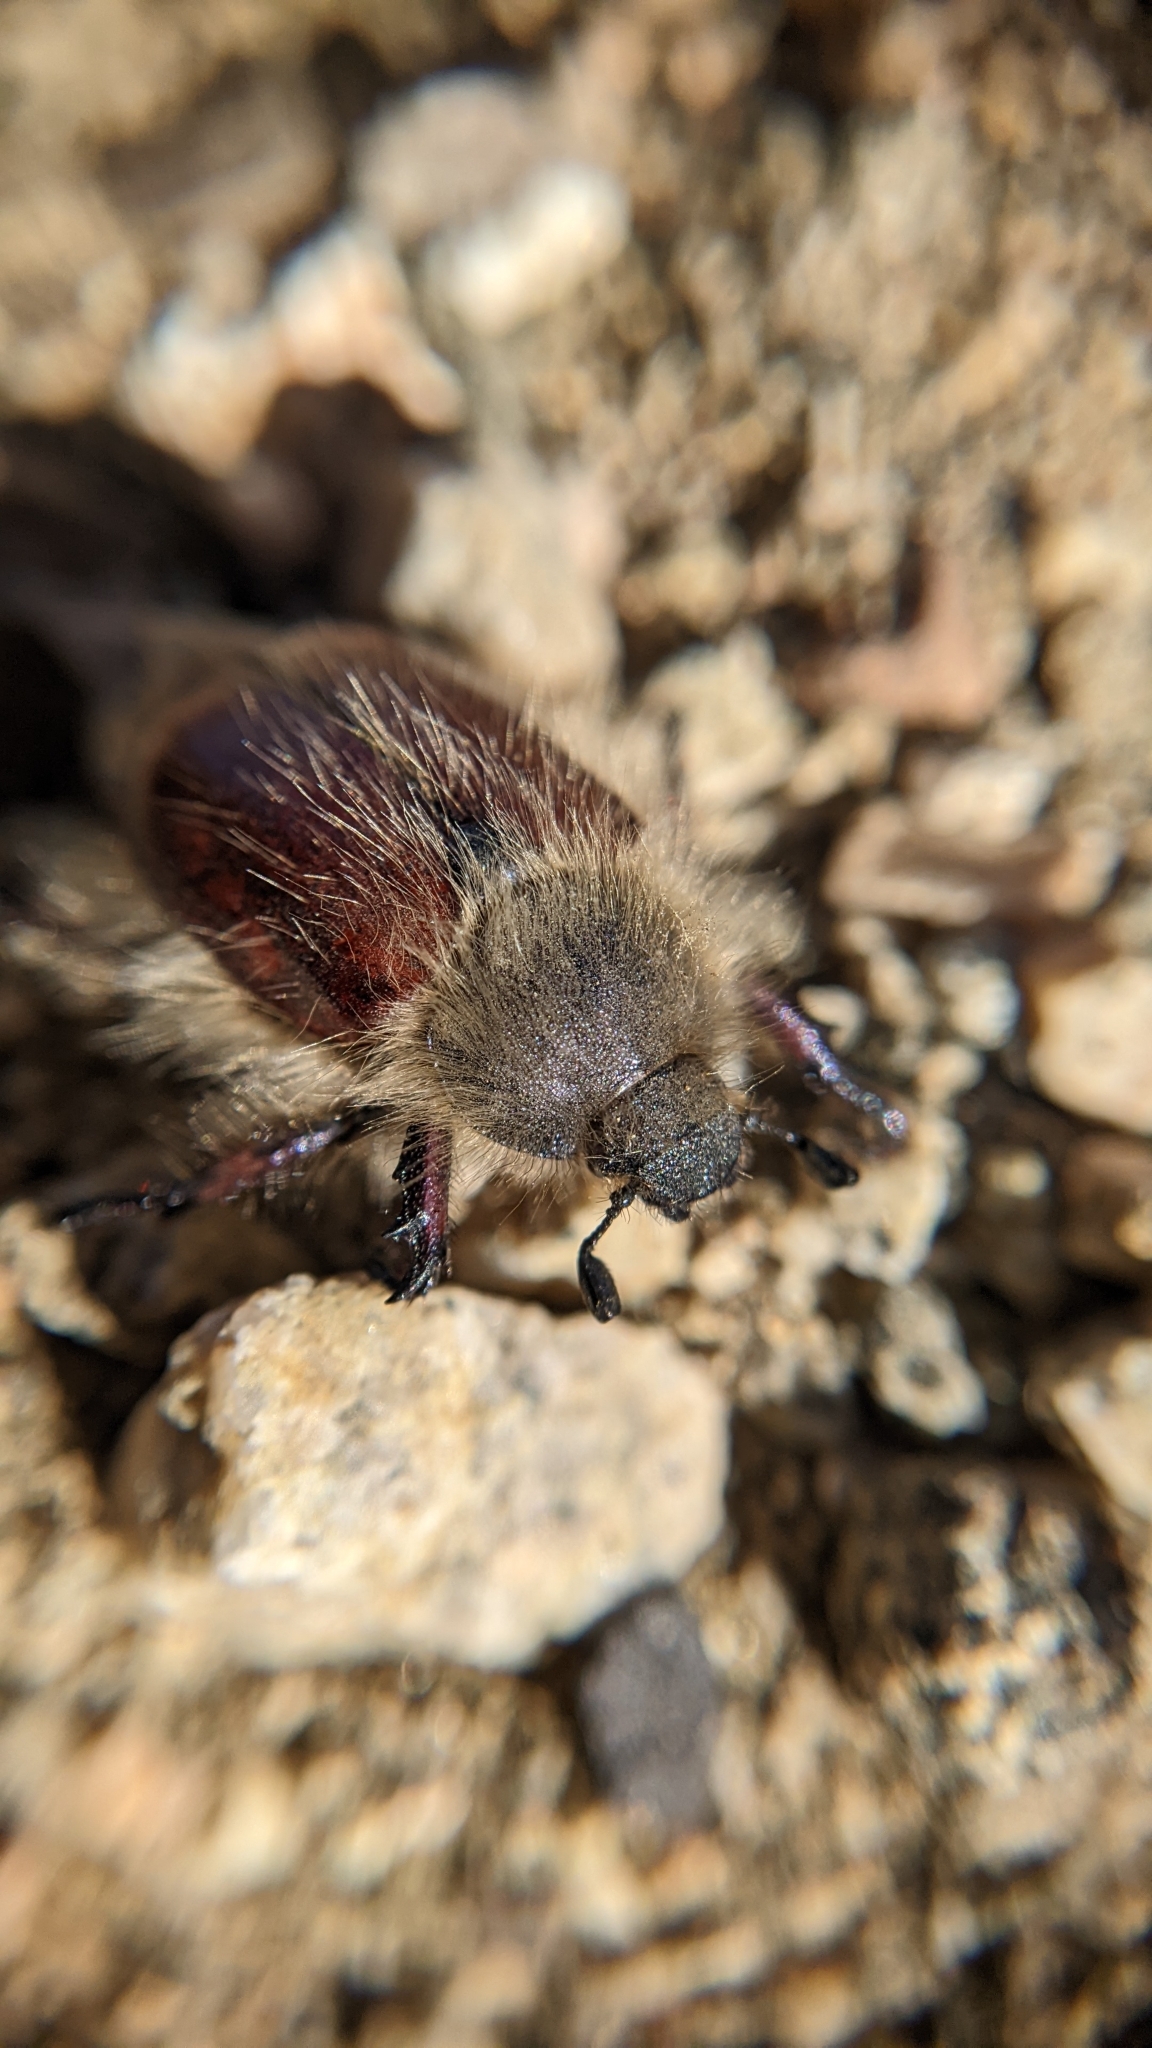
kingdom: Animalia
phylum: Arthropoda
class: Insecta
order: Coleoptera
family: Scarabaeidae
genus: Paracotalpa
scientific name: Paracotalpa ursina
